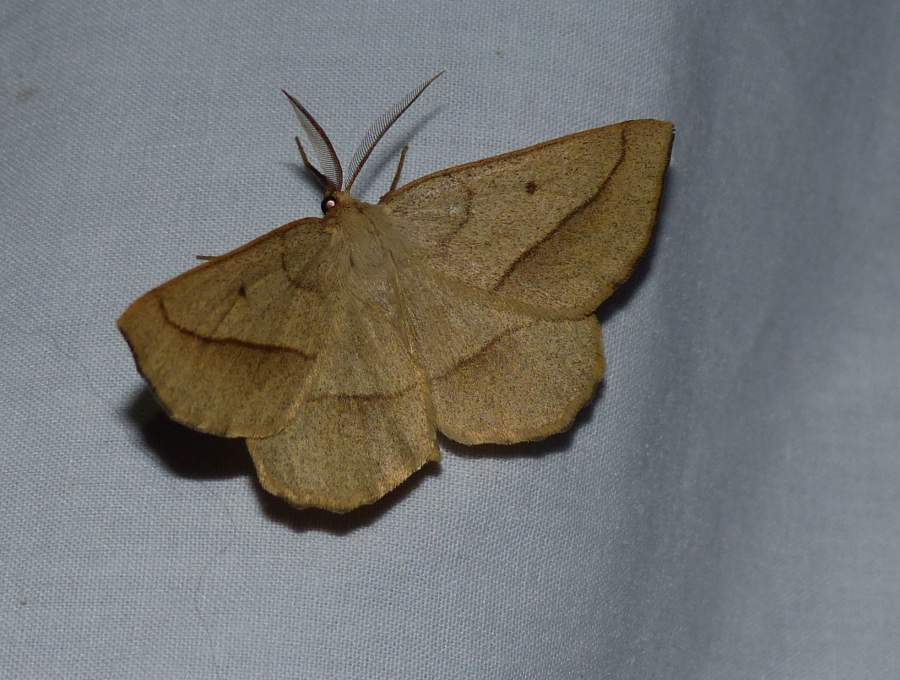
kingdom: Animalia
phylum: Arthropoda
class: Insecta
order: Lepidoptera
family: Geometridae
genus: Euchlaena
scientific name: Euchlaena irraria
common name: Least-marked euchlaena
